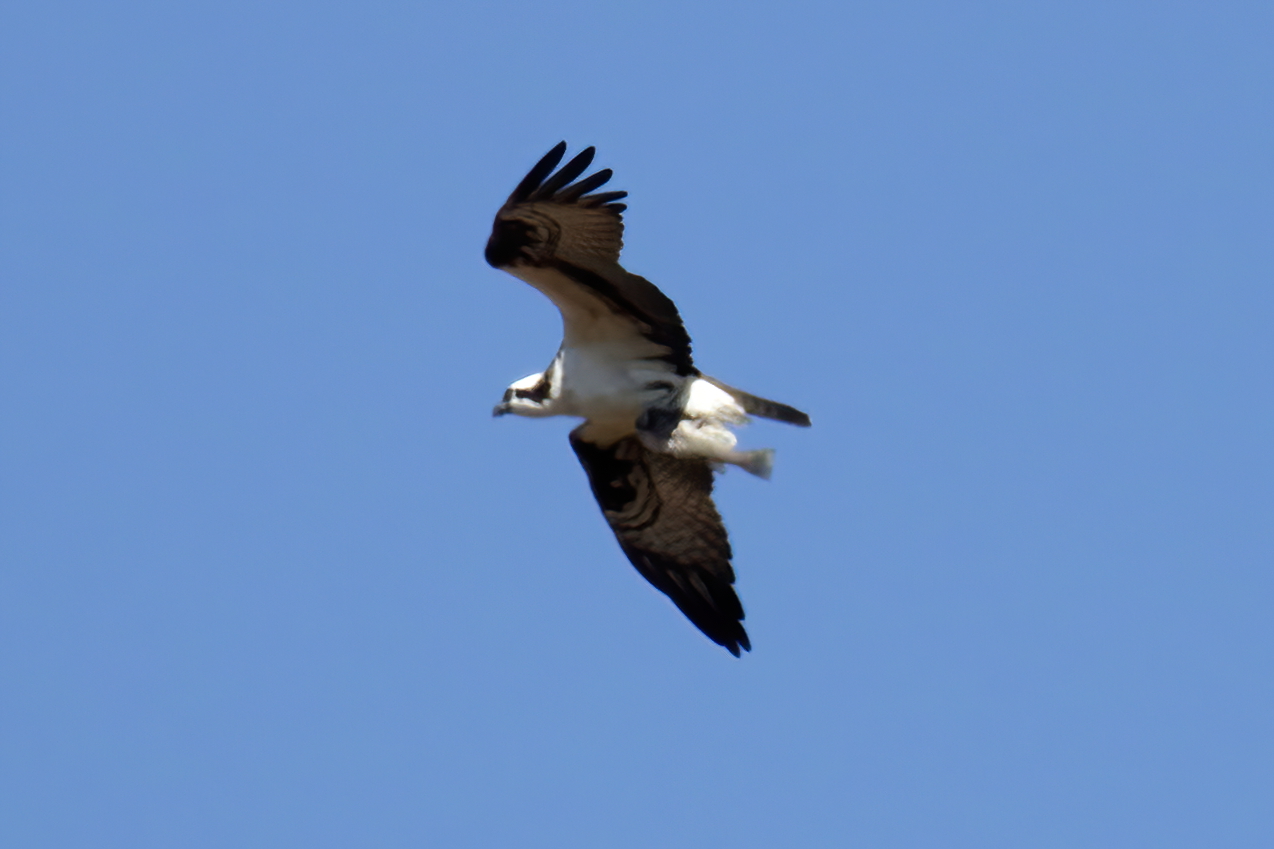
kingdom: Animalia
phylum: Chordata
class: Aves
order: Accipitriformes
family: Pandionidae
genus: Pandion
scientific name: Pandion haliaetus
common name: Osprey
